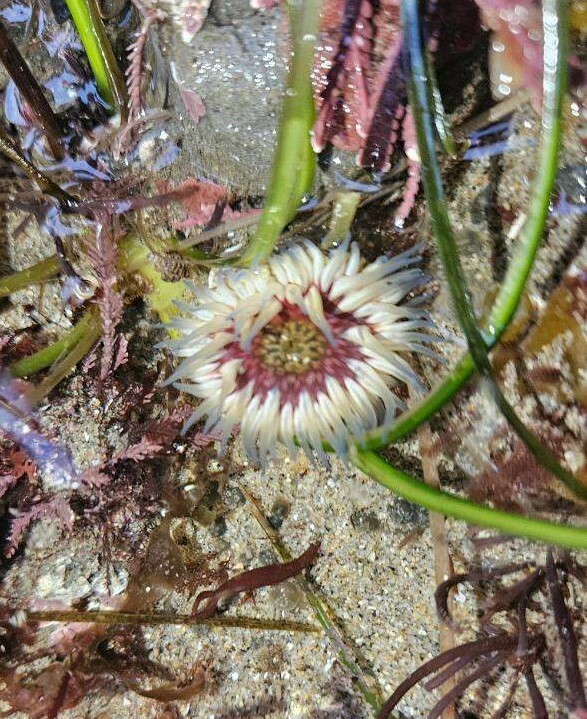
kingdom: Animalia
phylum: Cnidaria
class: Anthozoa
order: Actiniaria
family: Actiniidae
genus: Anthopleura
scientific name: Anthopleura artemisia
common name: Buried sea anemone
